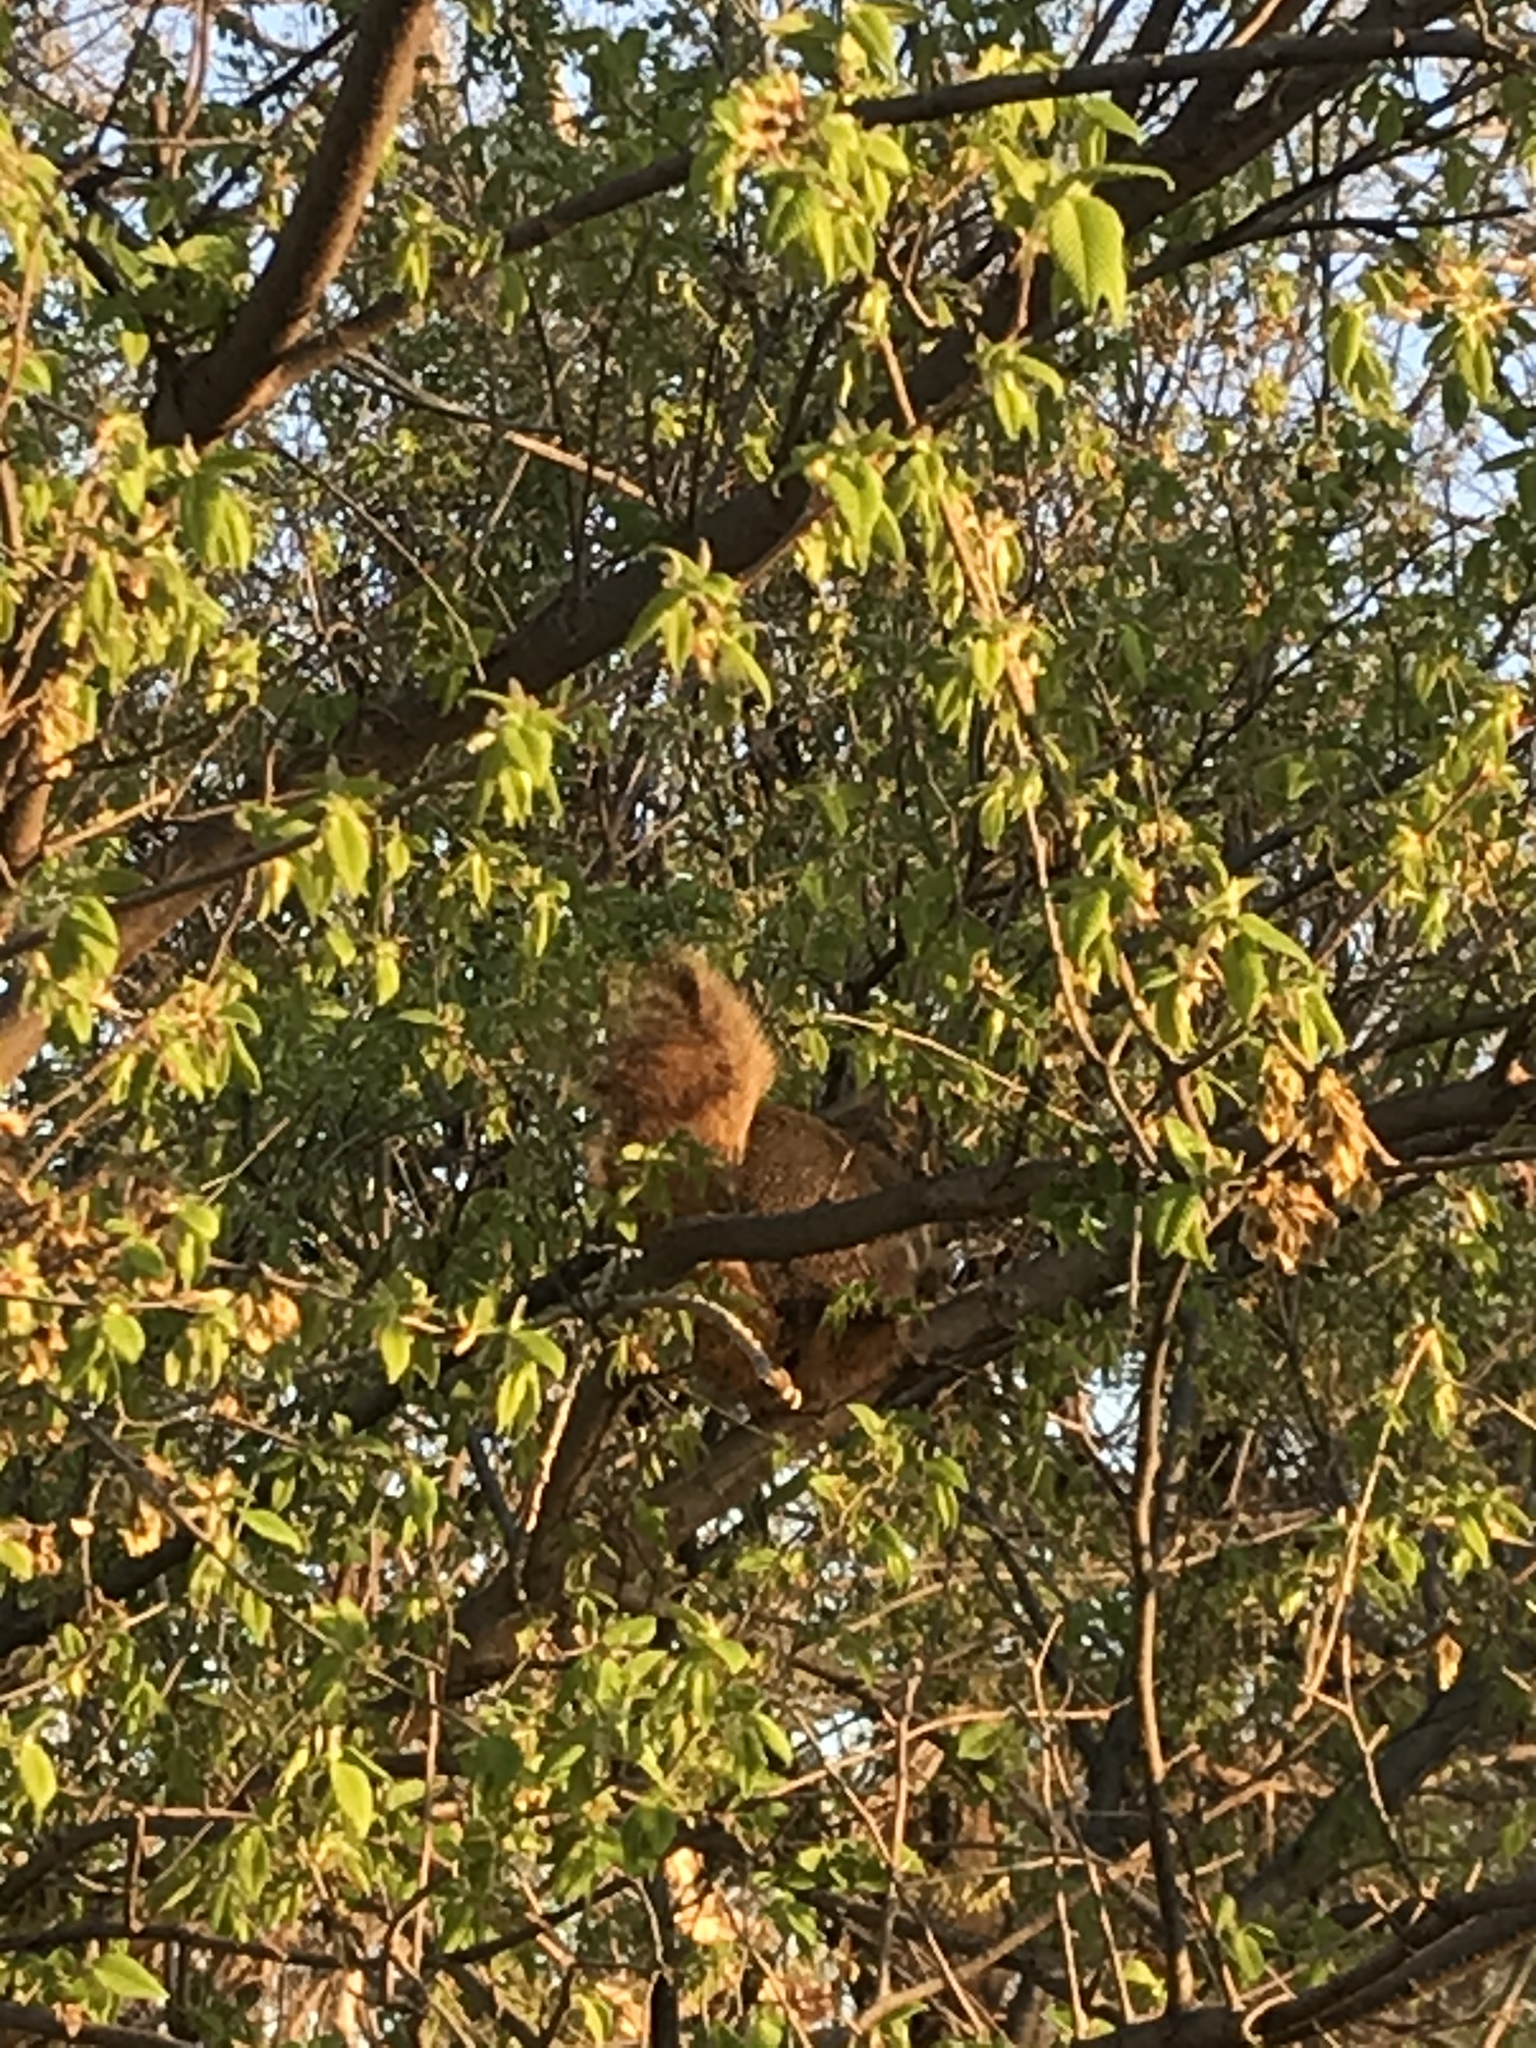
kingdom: Animalia
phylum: Chordata
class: Mammalia
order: Rodentia
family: Sciuridae
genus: Sciurus
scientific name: Sciurus niger
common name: Fox squirrel
